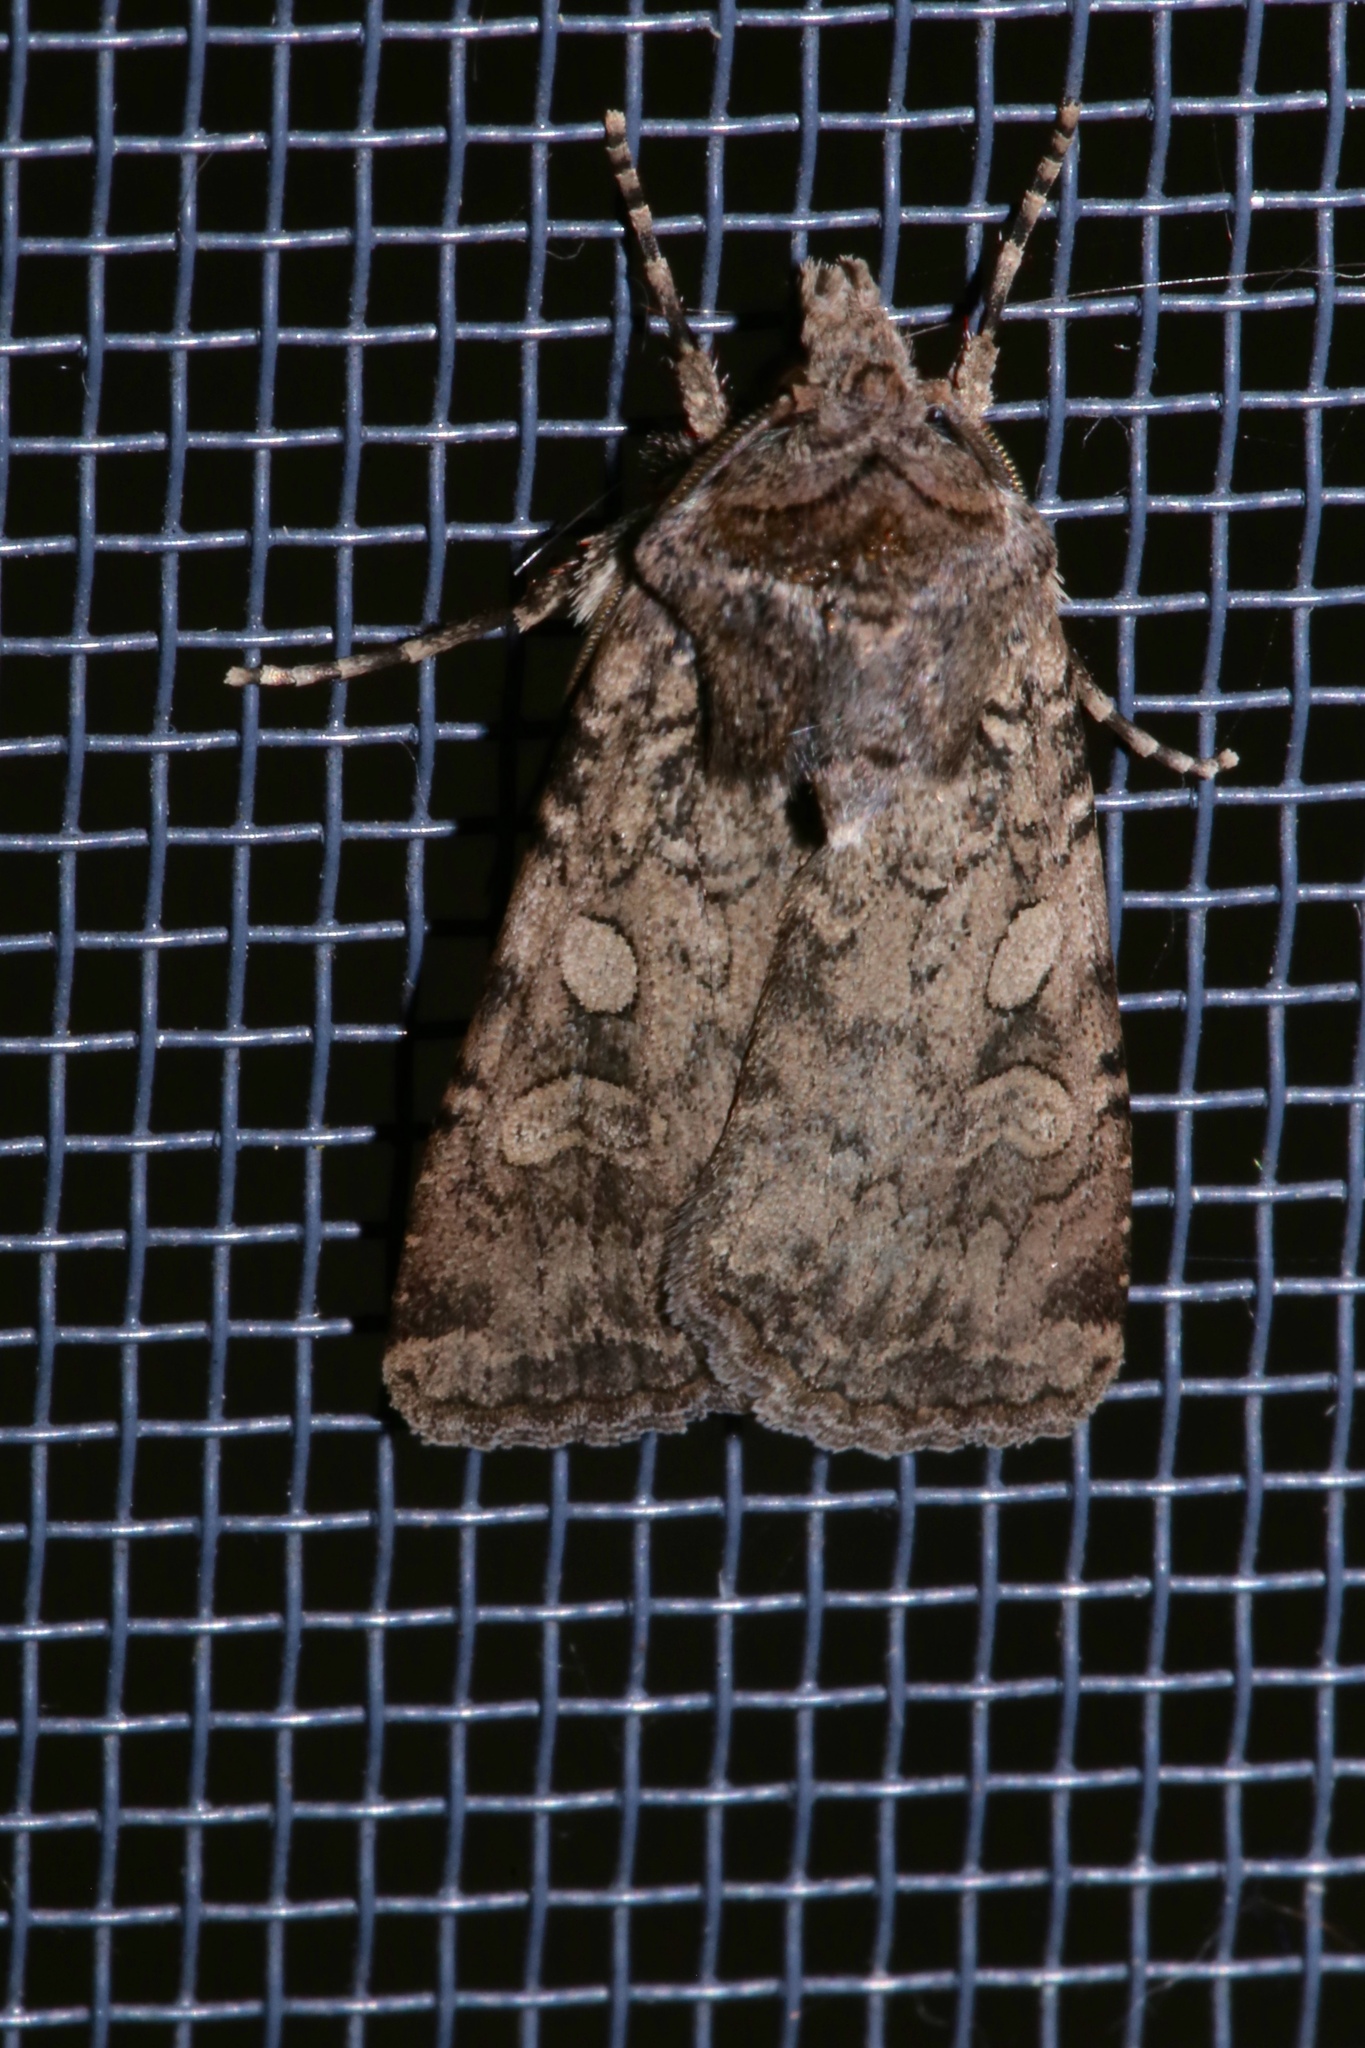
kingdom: Animalia
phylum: Arthropoda
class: Insecta
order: Lepidoptera
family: Noctuidae
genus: Euxoa
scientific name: Euxoa messoria
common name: Darksided cutworm
